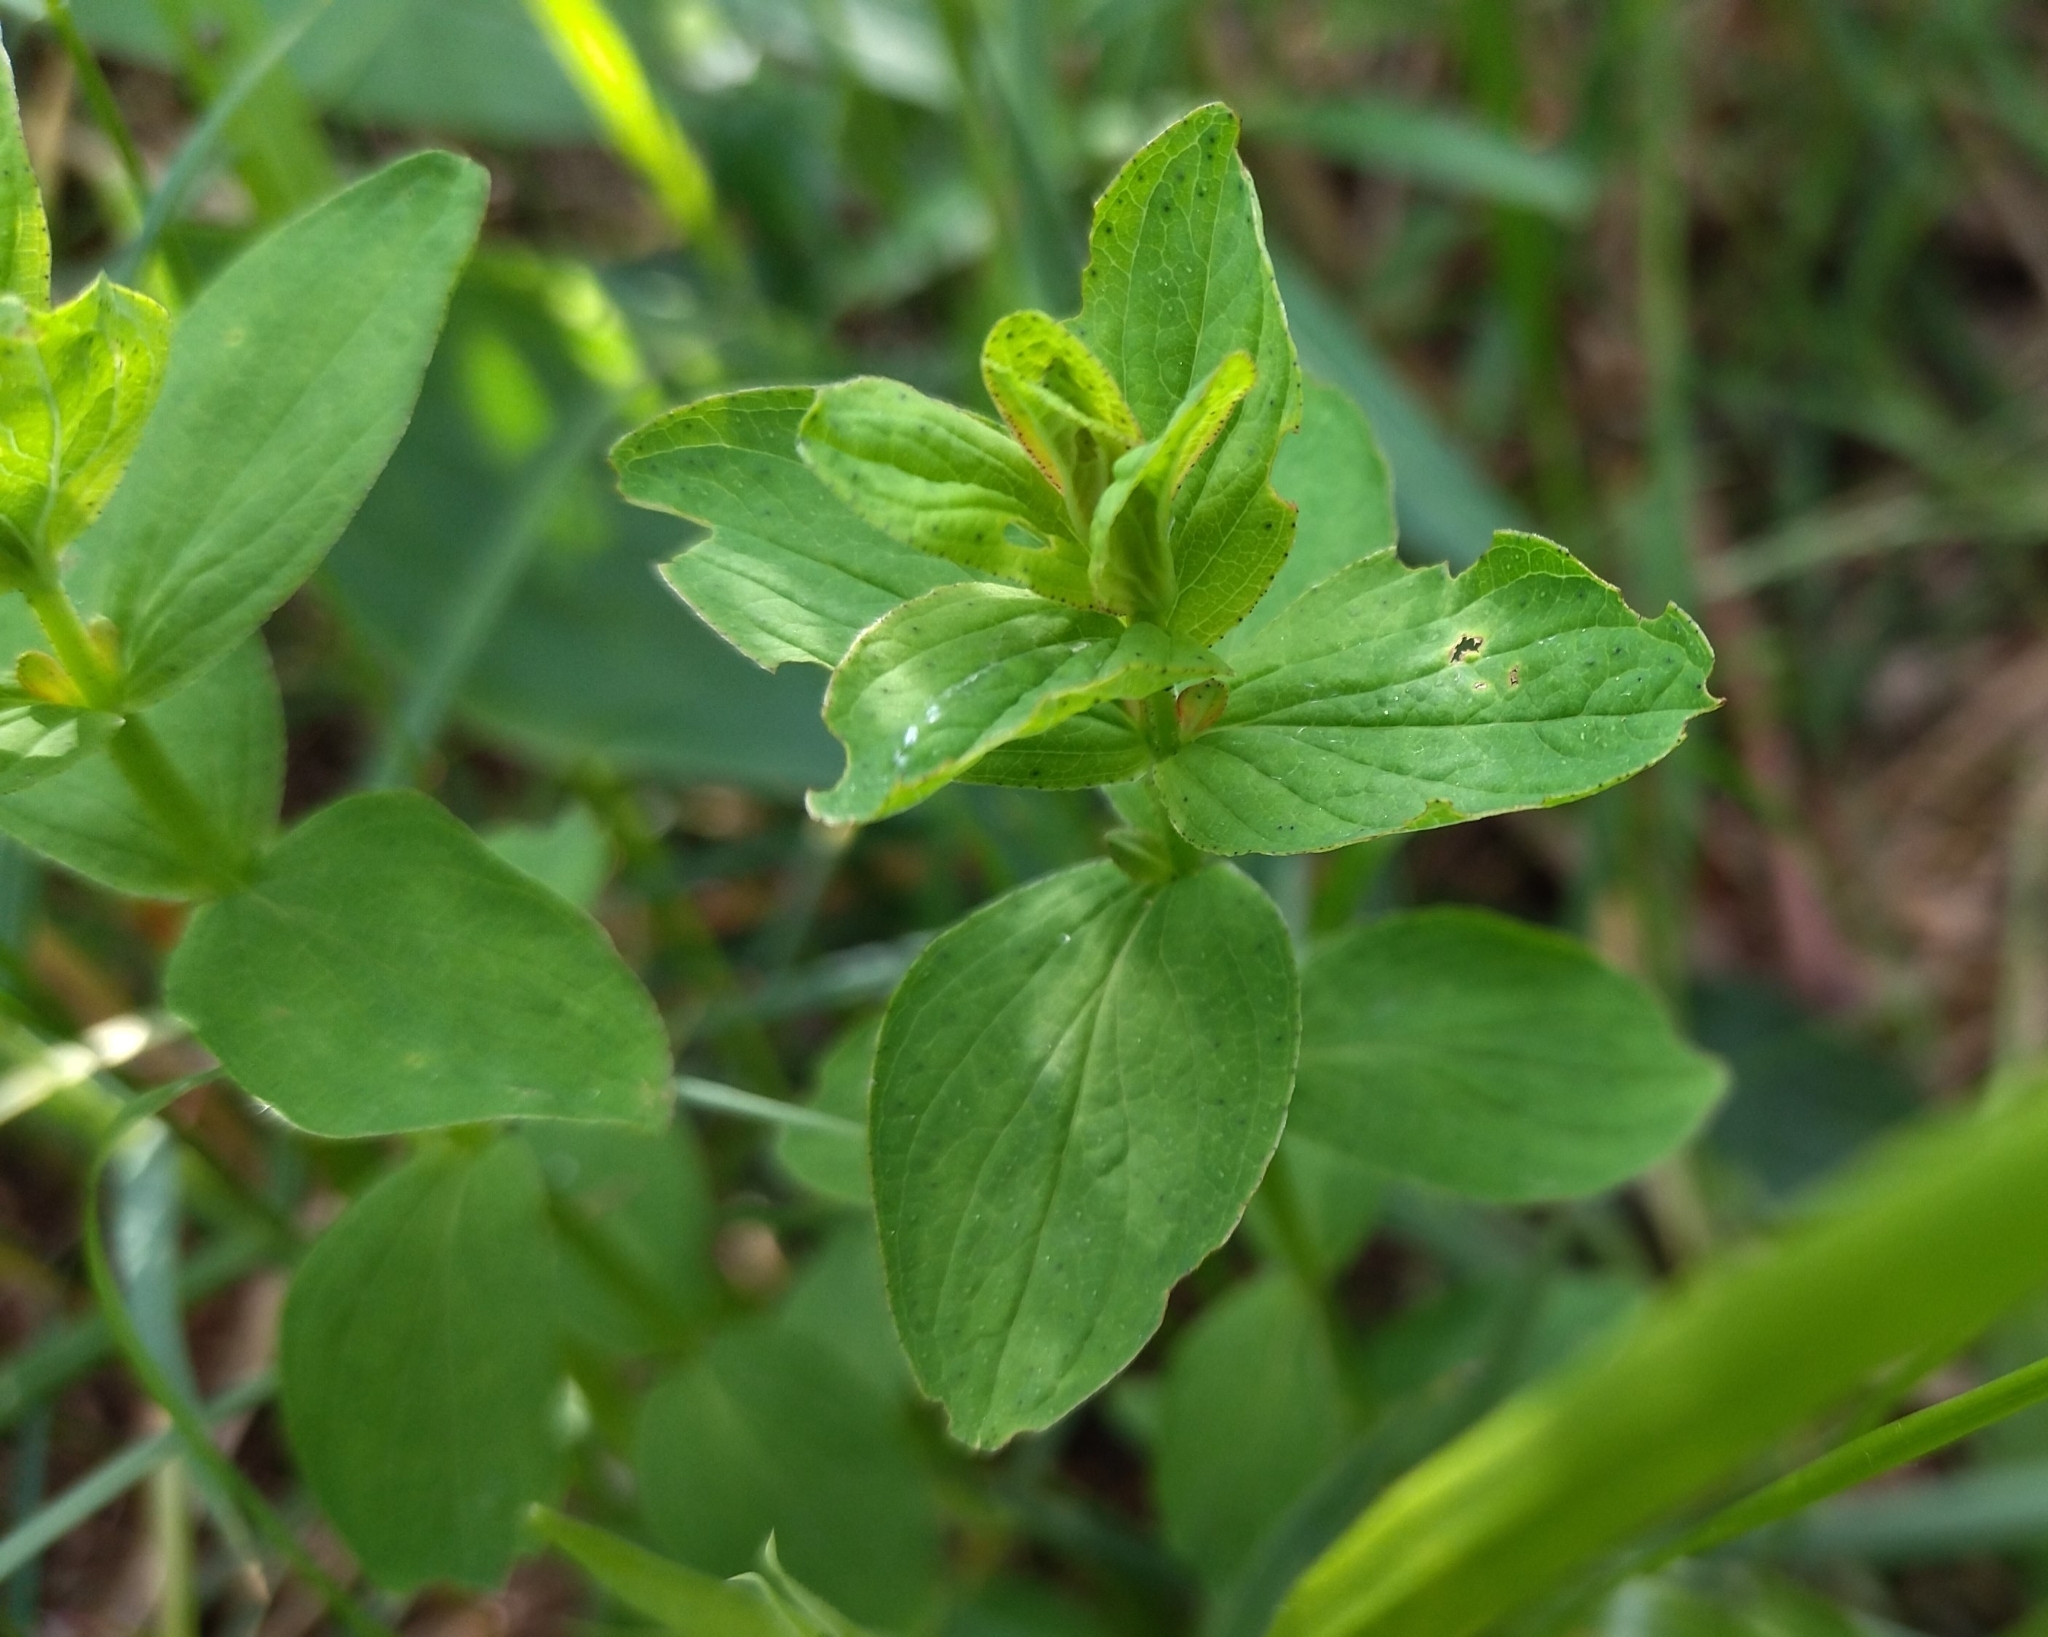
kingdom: Plantae
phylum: Tracheophyta
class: Magnoliopsida
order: Malpighiales
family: Hypericaceae
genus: Hypericum
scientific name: Hypericum maculatum
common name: Imperforate st. john's-wort
